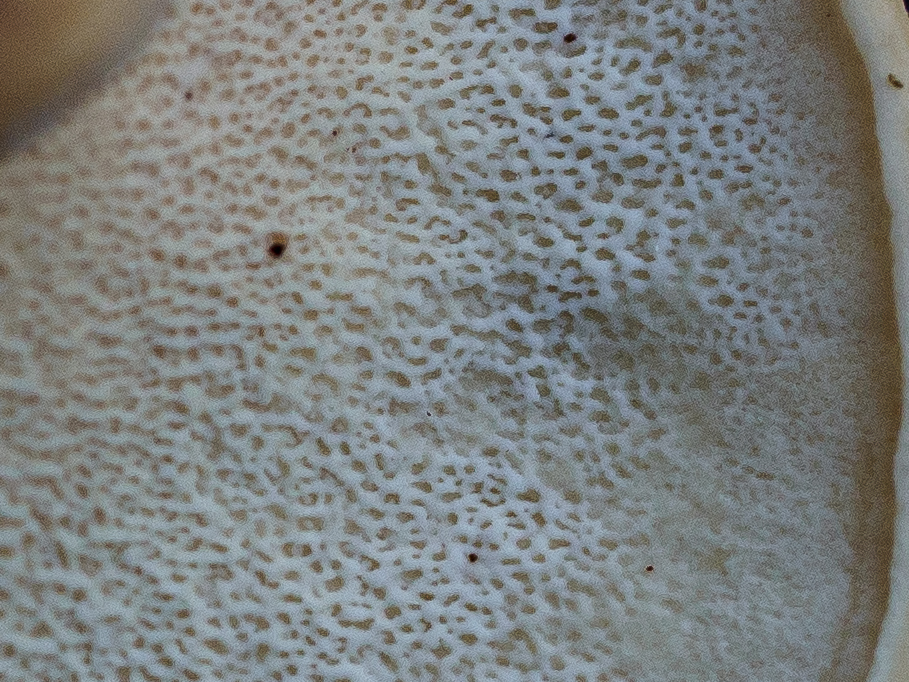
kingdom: Fungi
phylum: Basidiomycota
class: Agaricomycetes
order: Russulales
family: Albatrellaceae
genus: Albatrellopsis
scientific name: Albatrellopsis confluens
